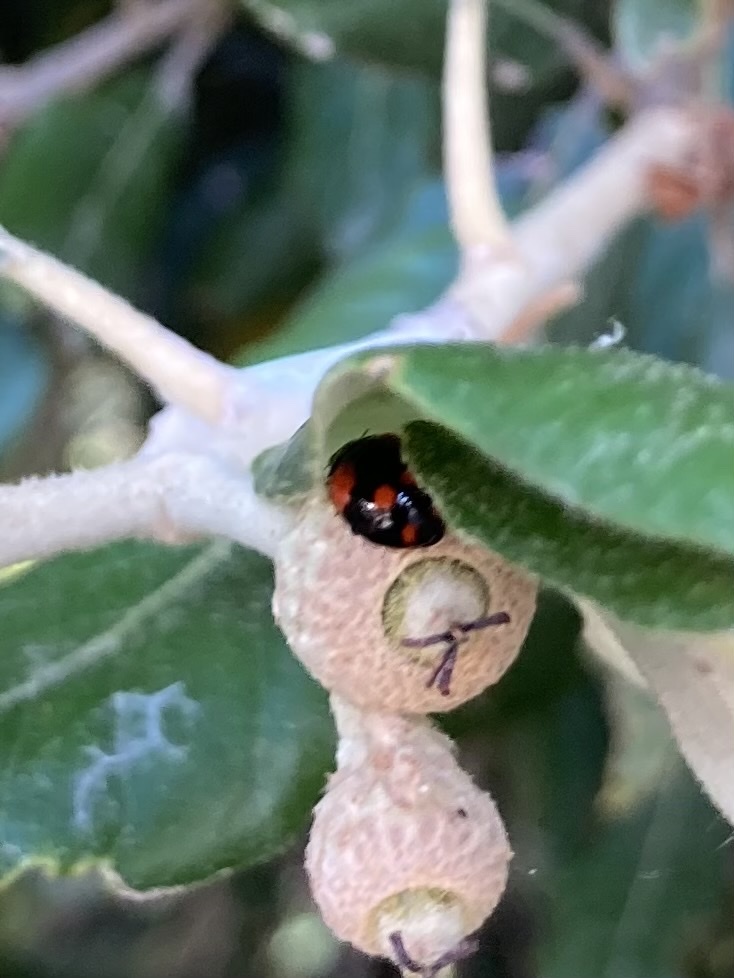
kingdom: Animalia
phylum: Arthropoda
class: Insecta
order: Coleoptera
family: Coccinellidae
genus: Adalia
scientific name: Adalia bipunctata
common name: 2-spot ladybird
